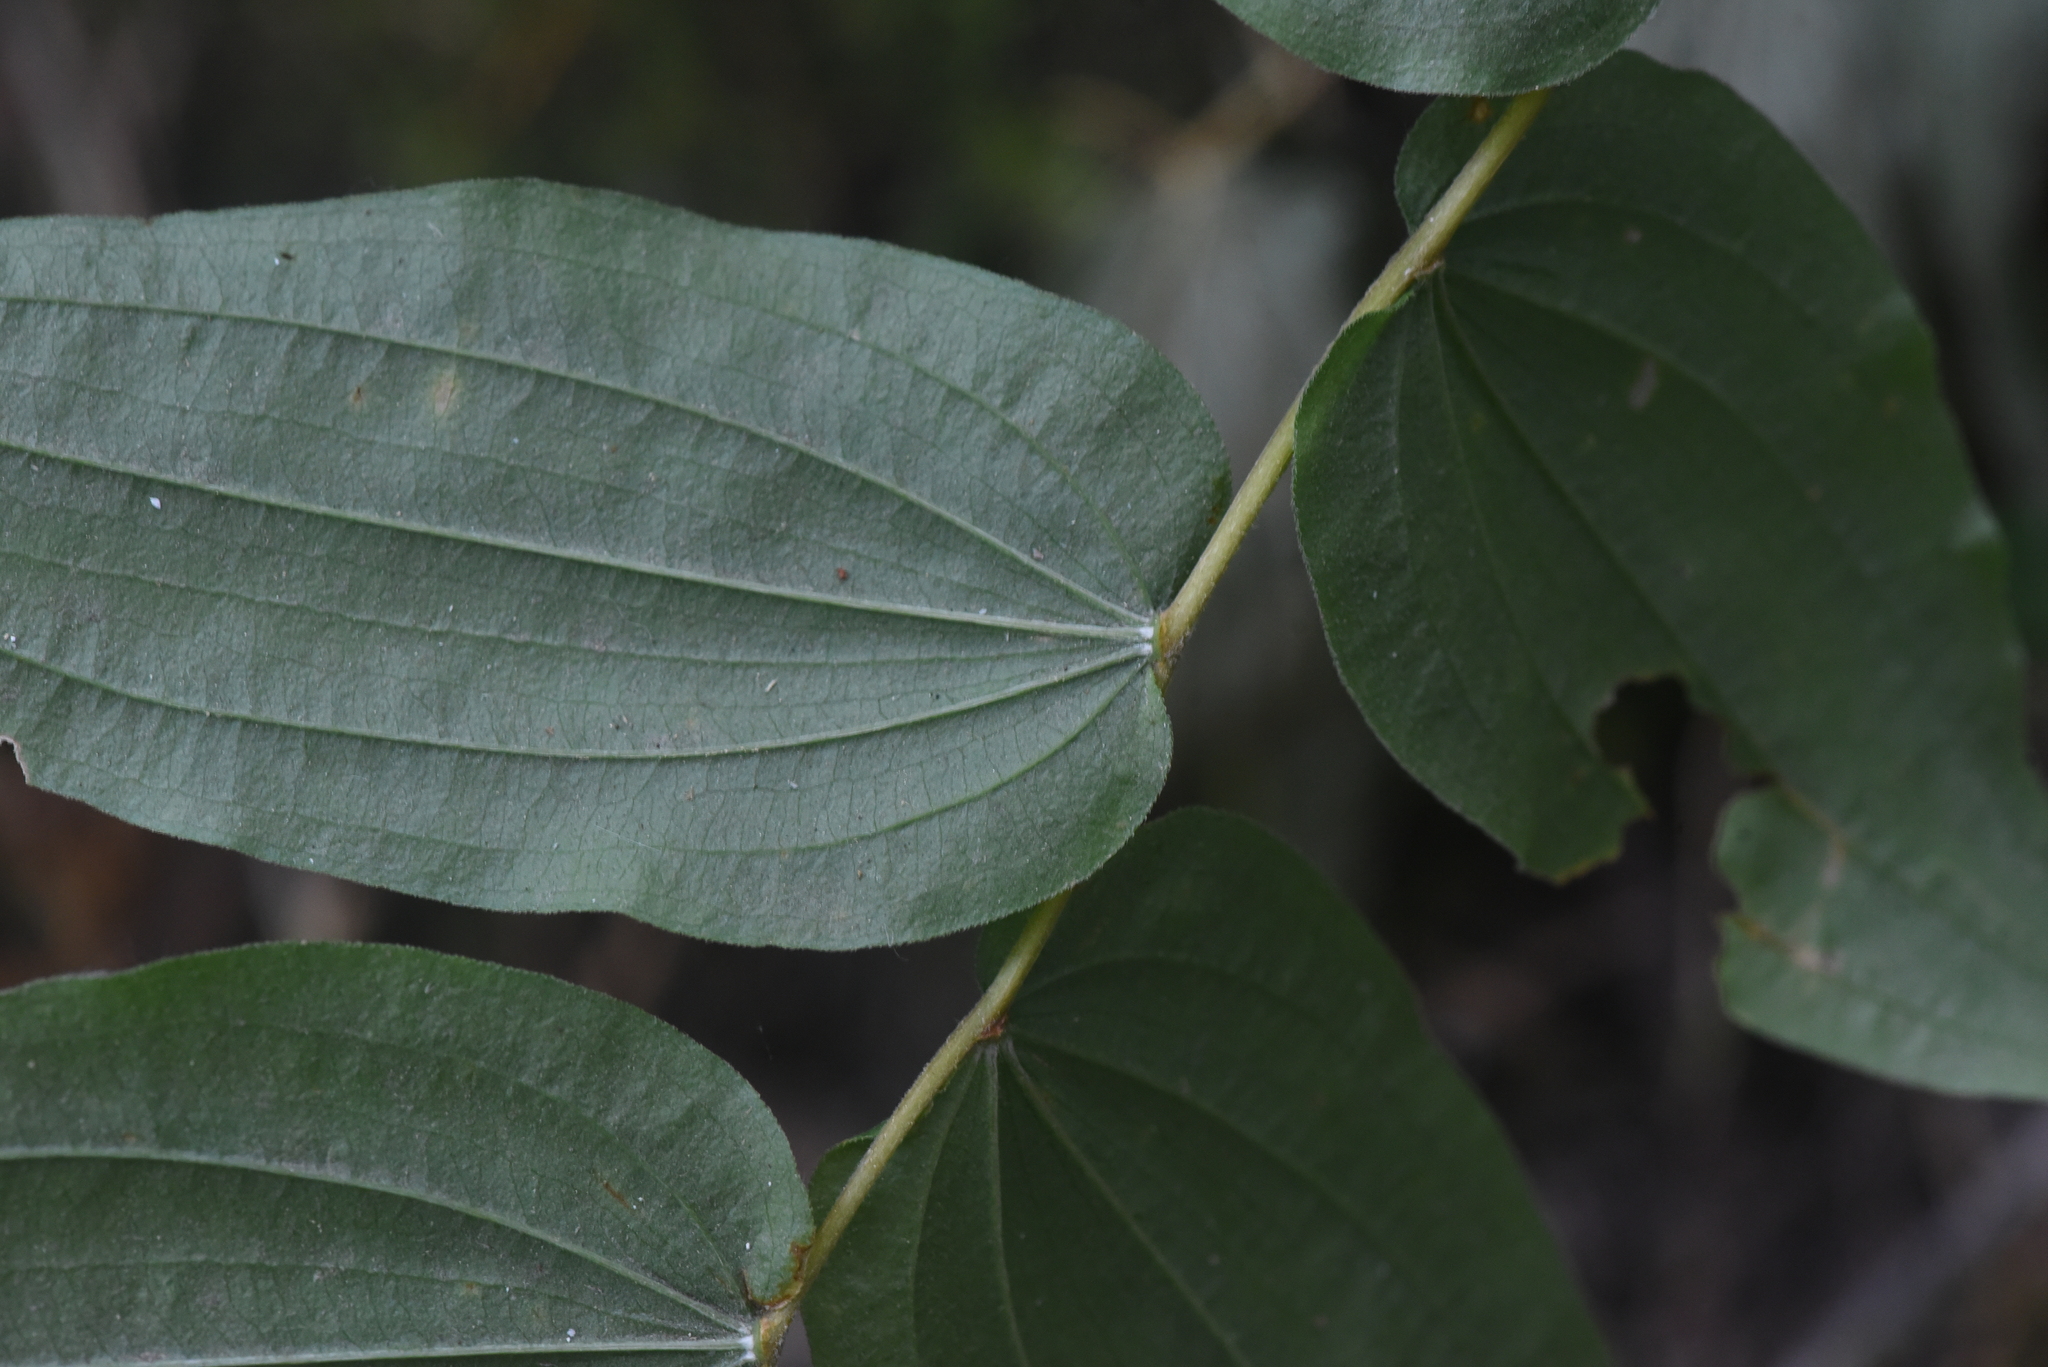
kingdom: Plantae
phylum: Tracheophyta
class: Liliopsida
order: Liliales
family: Liliaceae
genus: Prosartes
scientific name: Prosartes hookeri
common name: Fairy-bells
